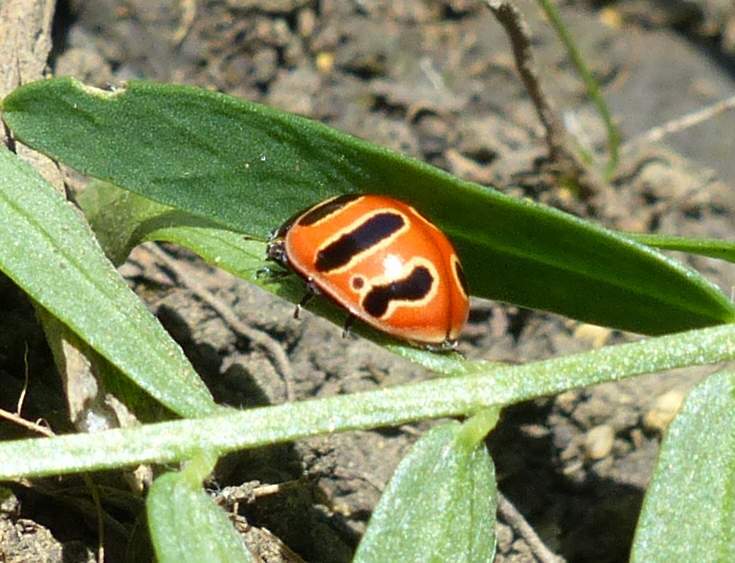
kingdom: Animalia
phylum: Arthropoda
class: Insecta
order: Coleoptera
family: Coccinellidae
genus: Coccinella
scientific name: Coccinella trifasciata
